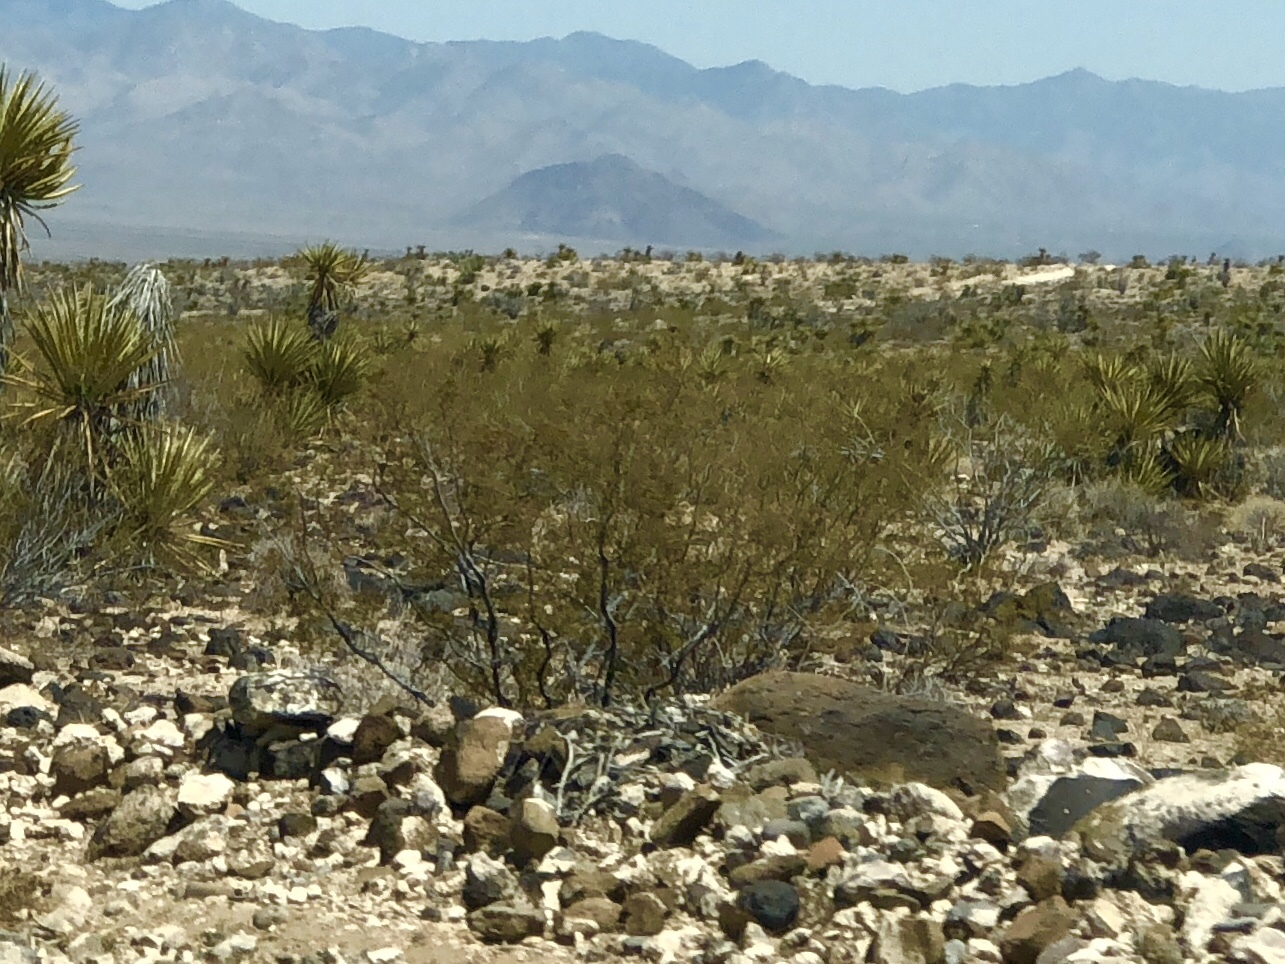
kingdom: Plantae
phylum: Tracheophyta
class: Magnoliopsida
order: Zygophyllales
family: Zygophyllaceae
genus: Larrea
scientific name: Larrea tridentata
